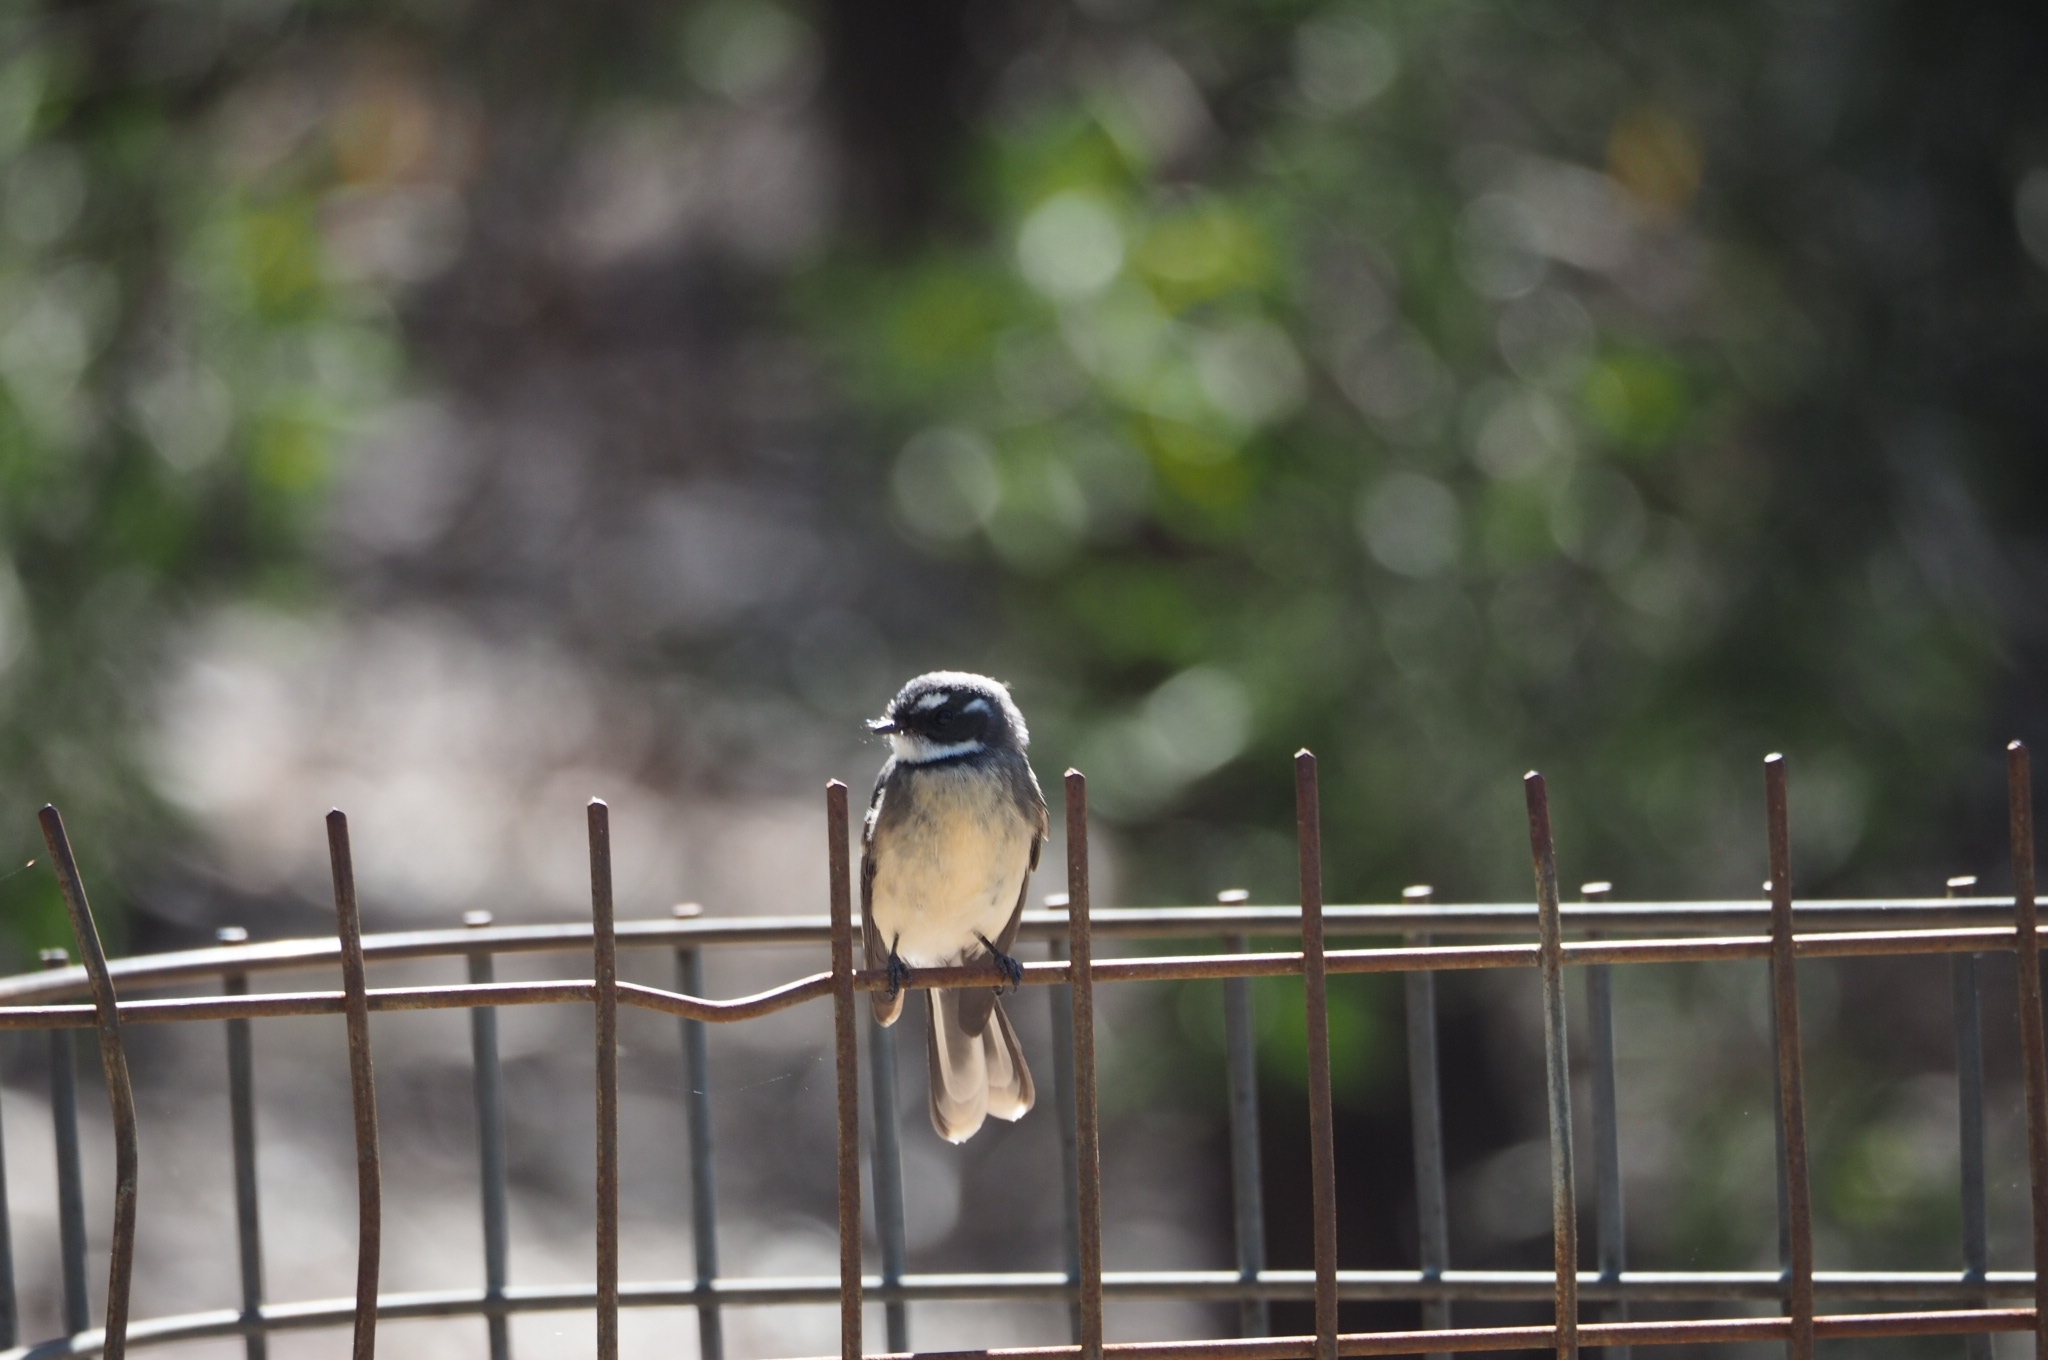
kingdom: Animalia
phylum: Chordata
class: Aves
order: Passeriformes
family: Rhipiduridae
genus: Rhipidura
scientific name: Rhipidura albiscapa
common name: Grey fantail
